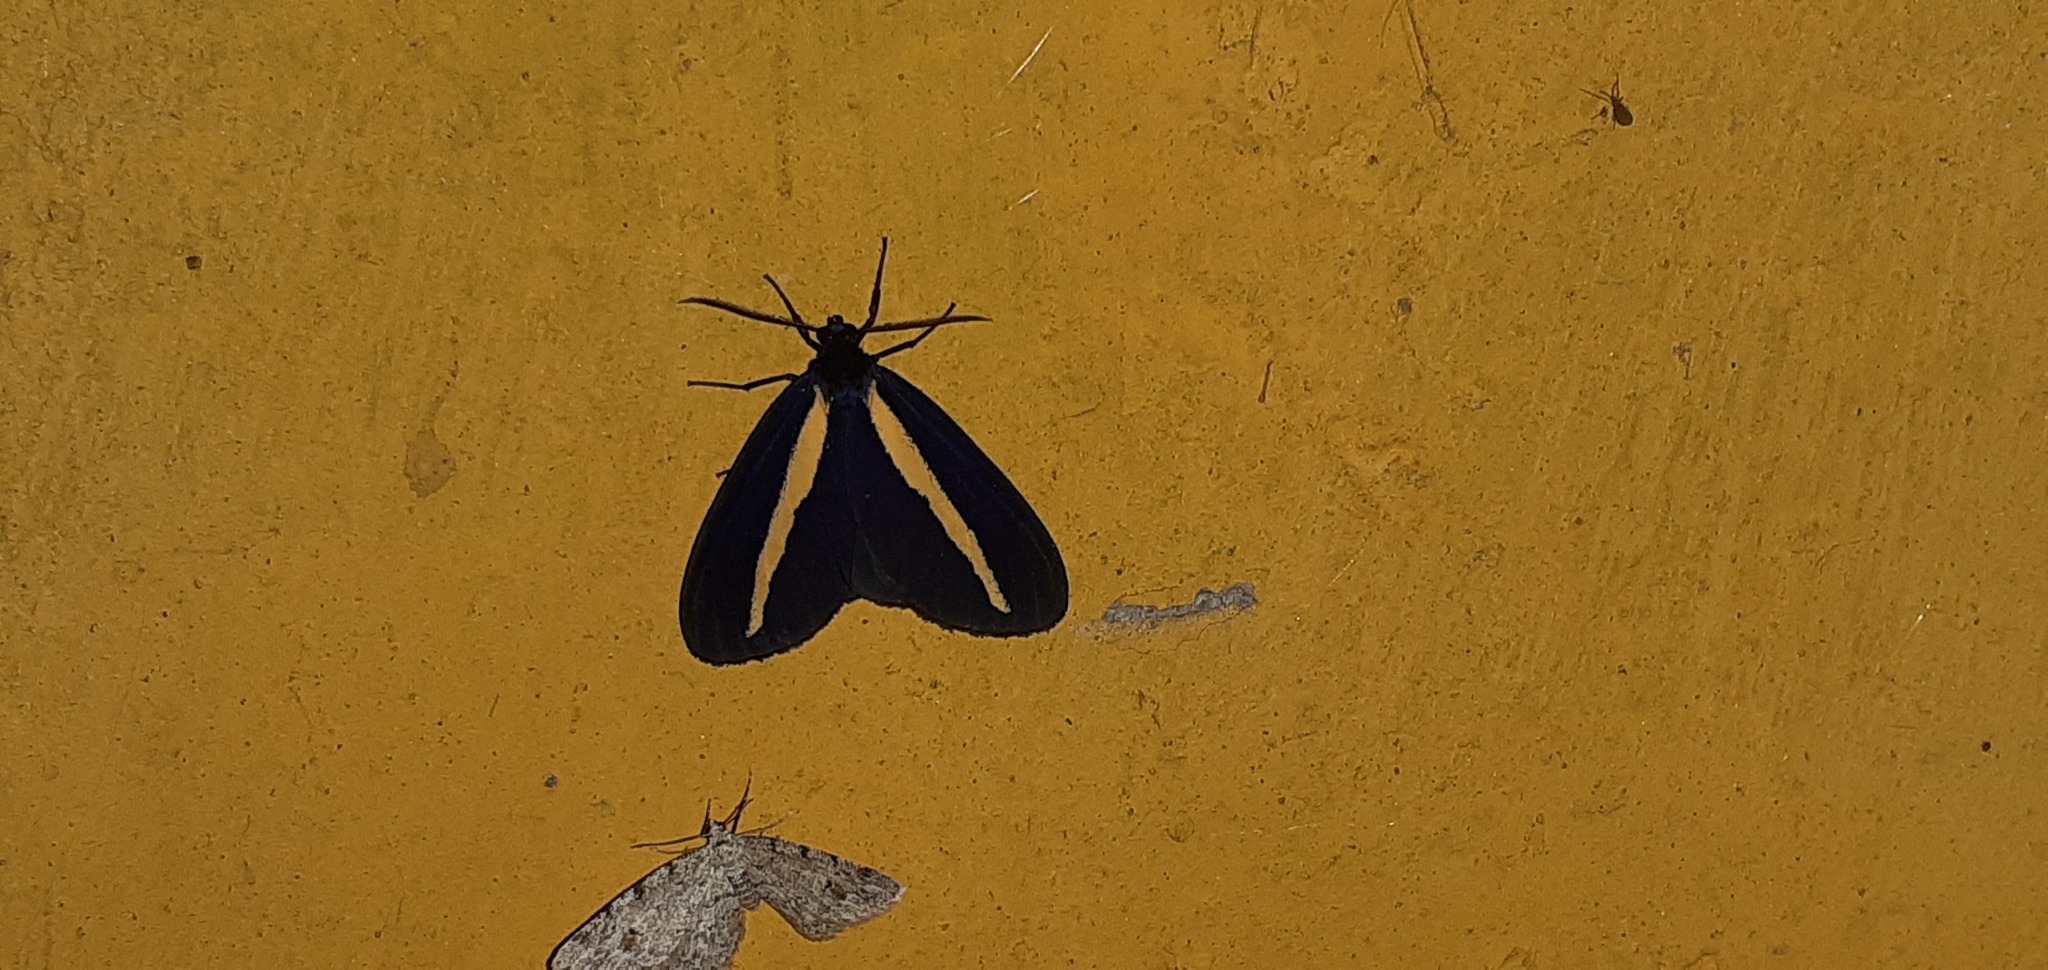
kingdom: Animalia
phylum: Arthropoda
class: Insecta
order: Lepidoptera
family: Erebidae
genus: Crocomela
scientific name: Crocomela erectistria
